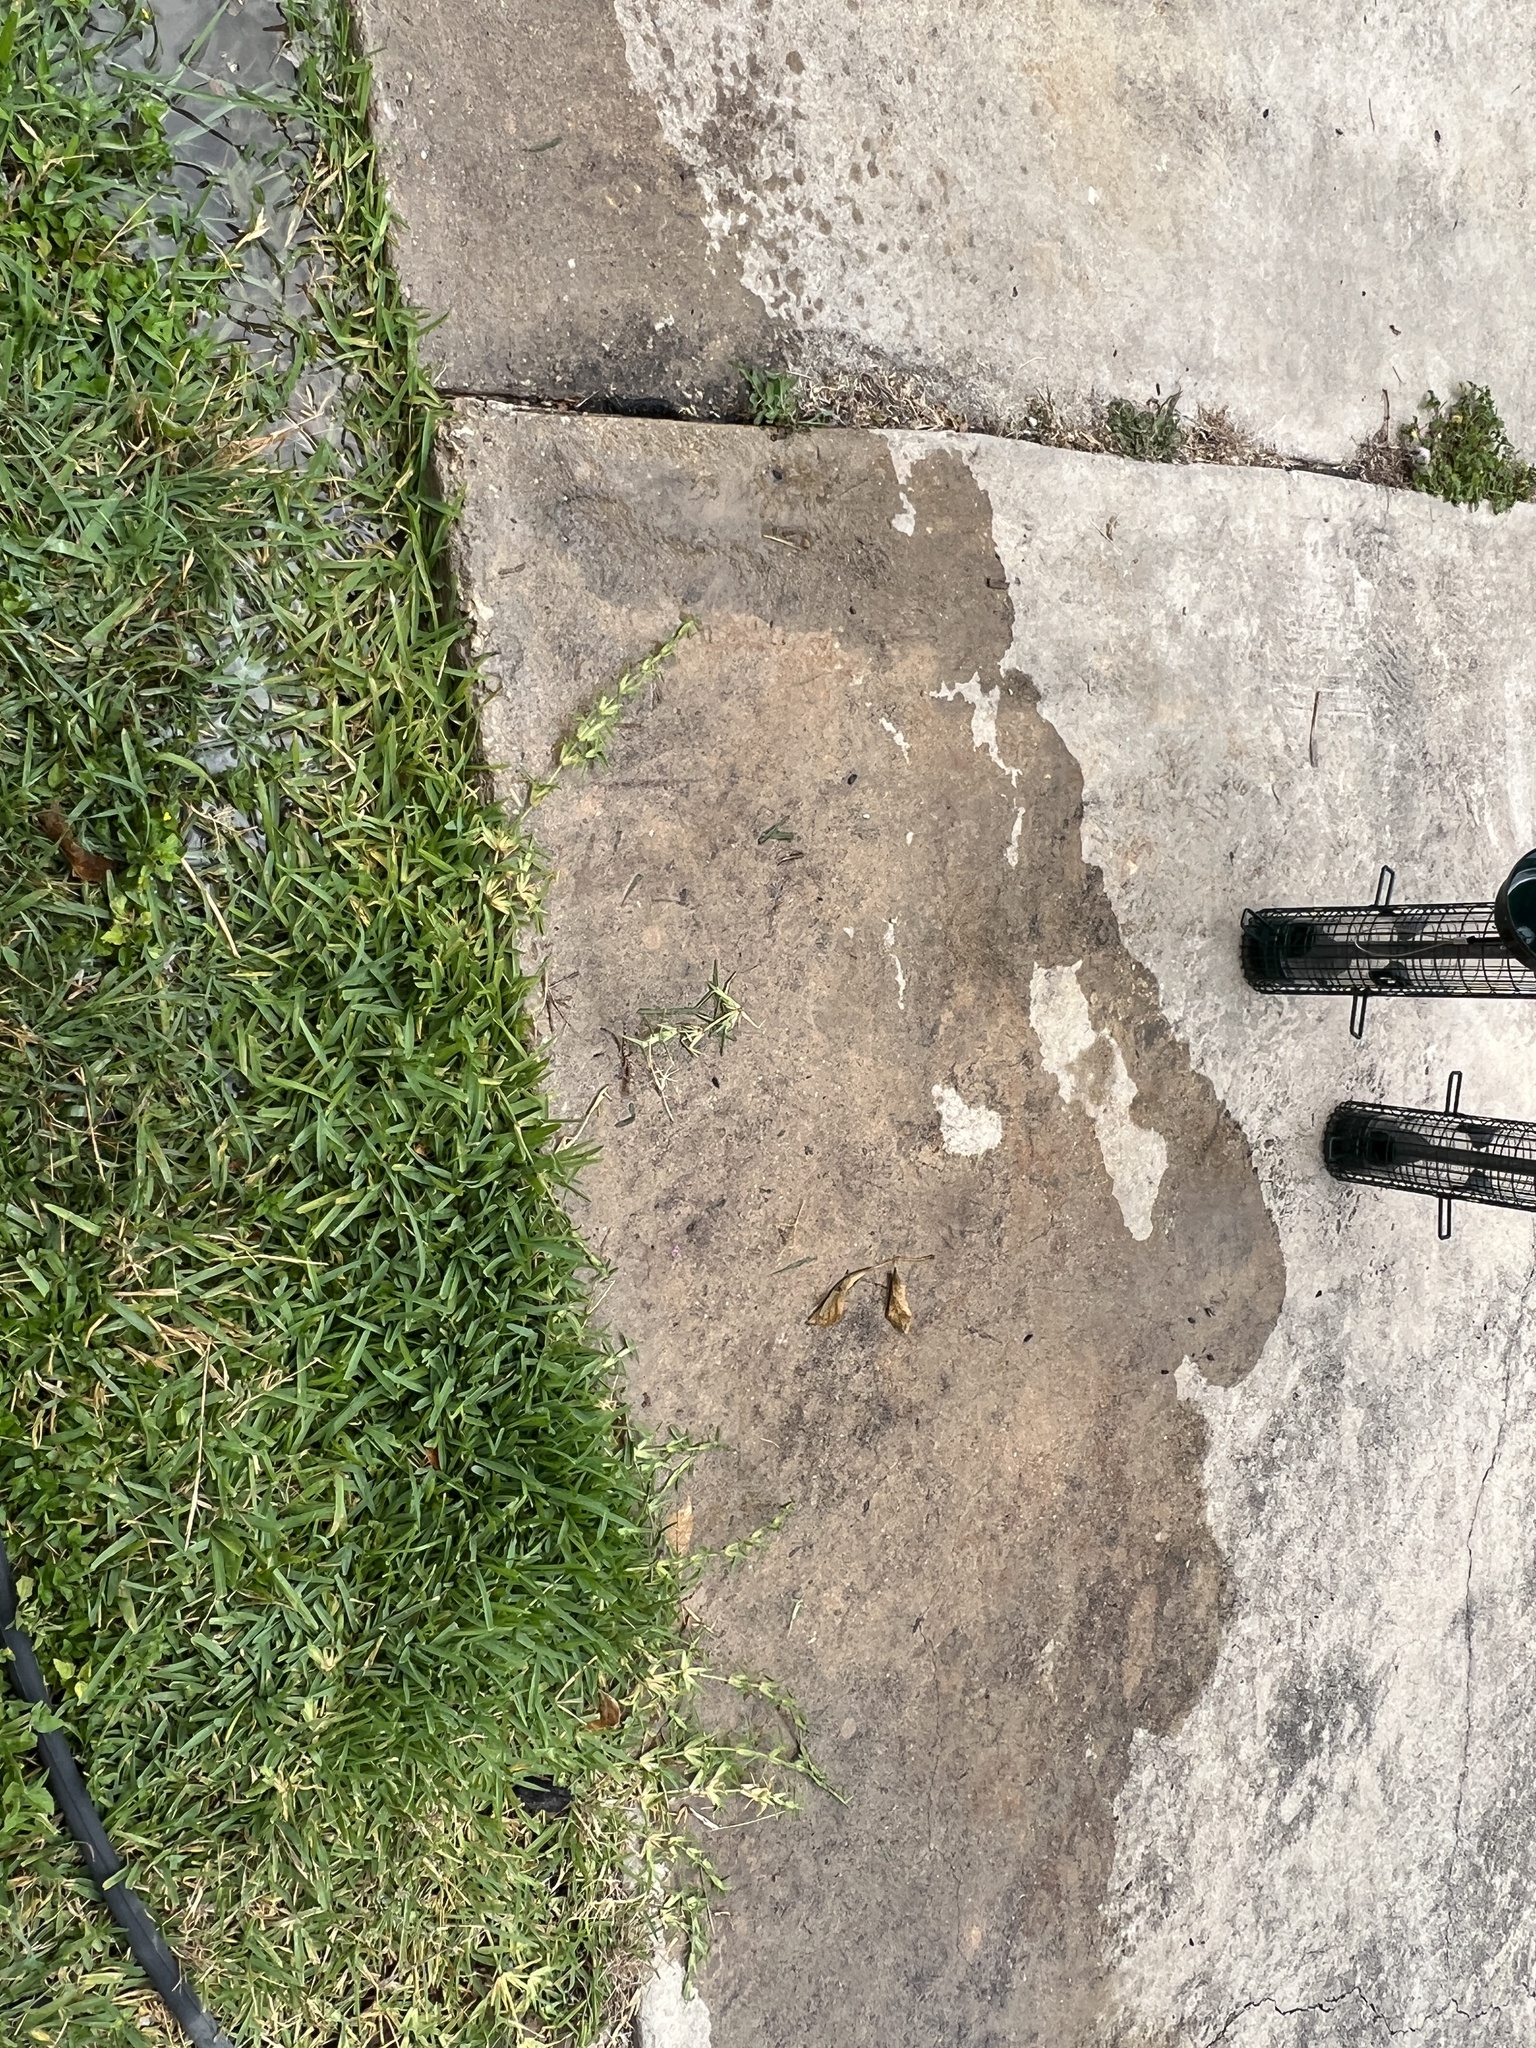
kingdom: Animalia
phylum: Chordata
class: Squamata
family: Gekkonidae
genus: Hemidactylus
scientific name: Hemidactylus turcicus
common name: Turkish gecko
